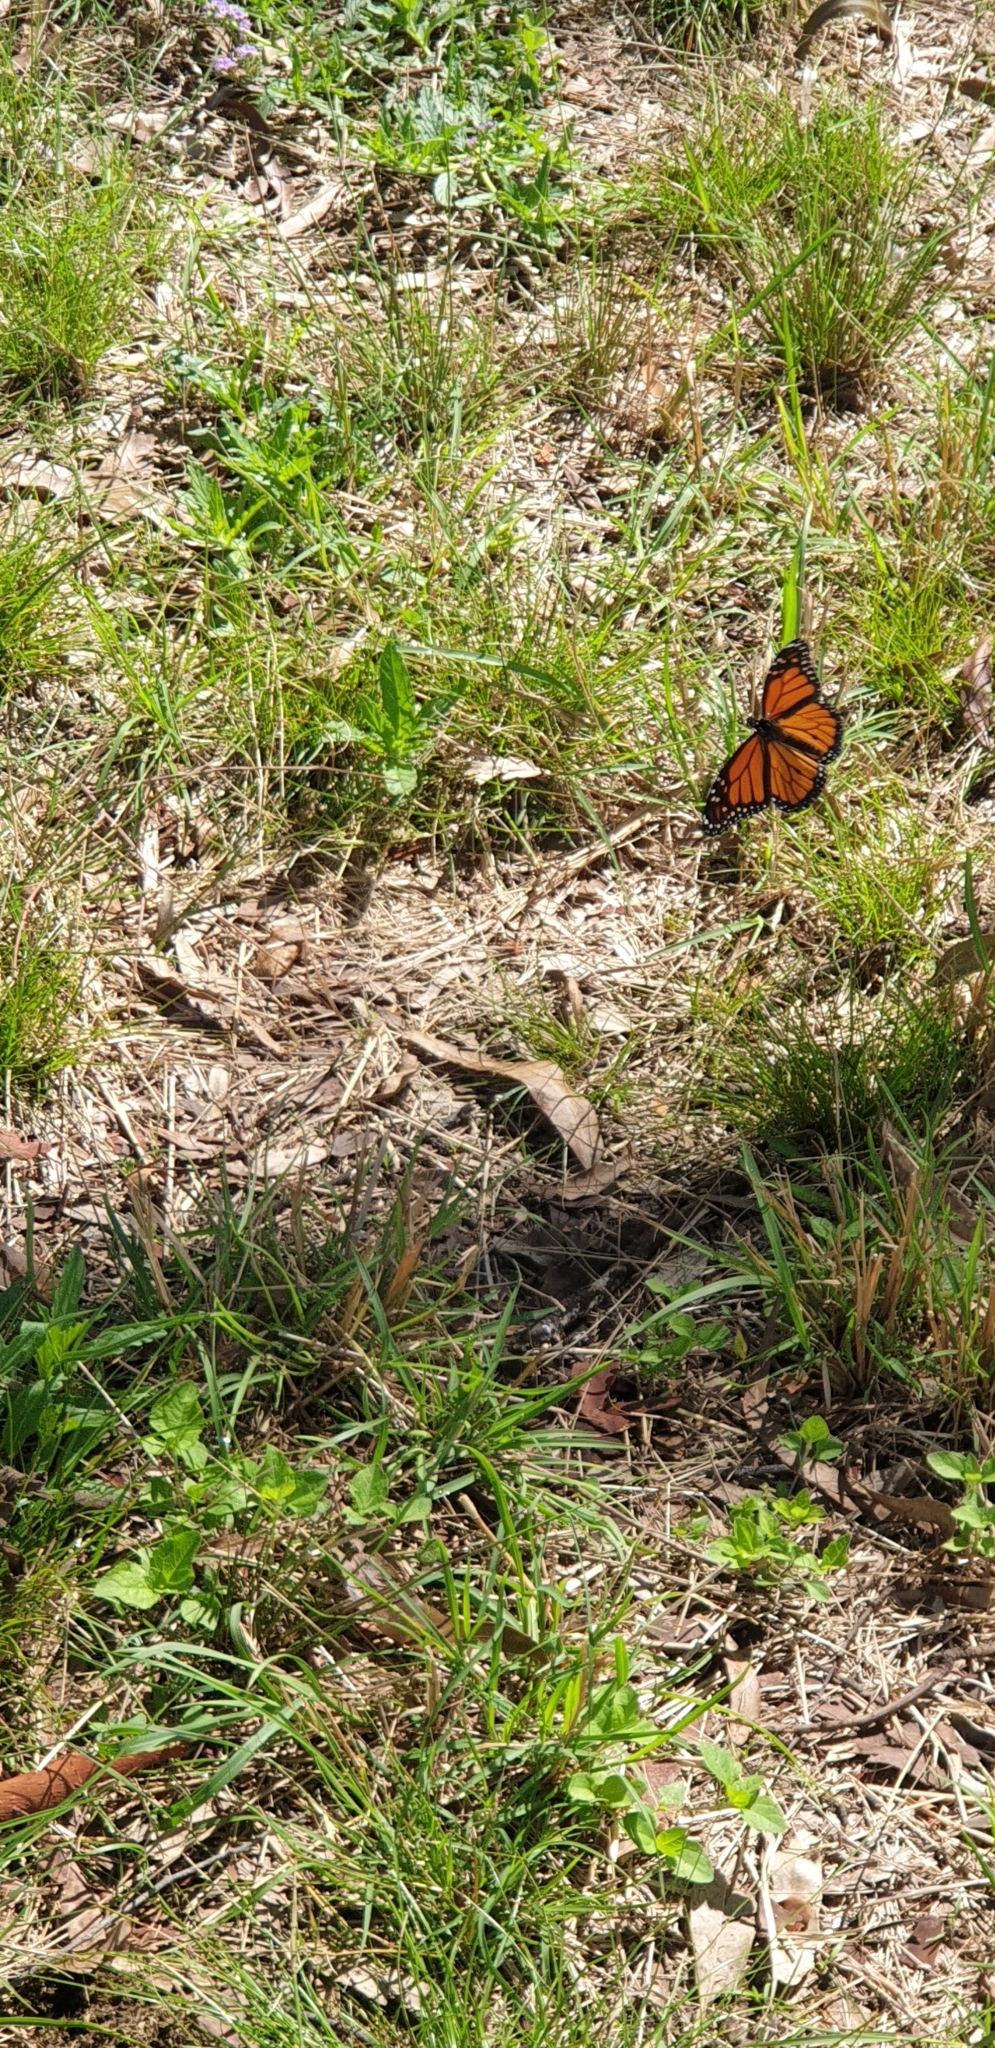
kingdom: Animalia
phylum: Arthropoda
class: Insecta
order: Lepidoptera
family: Nymphalidae
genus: Danaus
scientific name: Danaus plexippus
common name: Monarch
